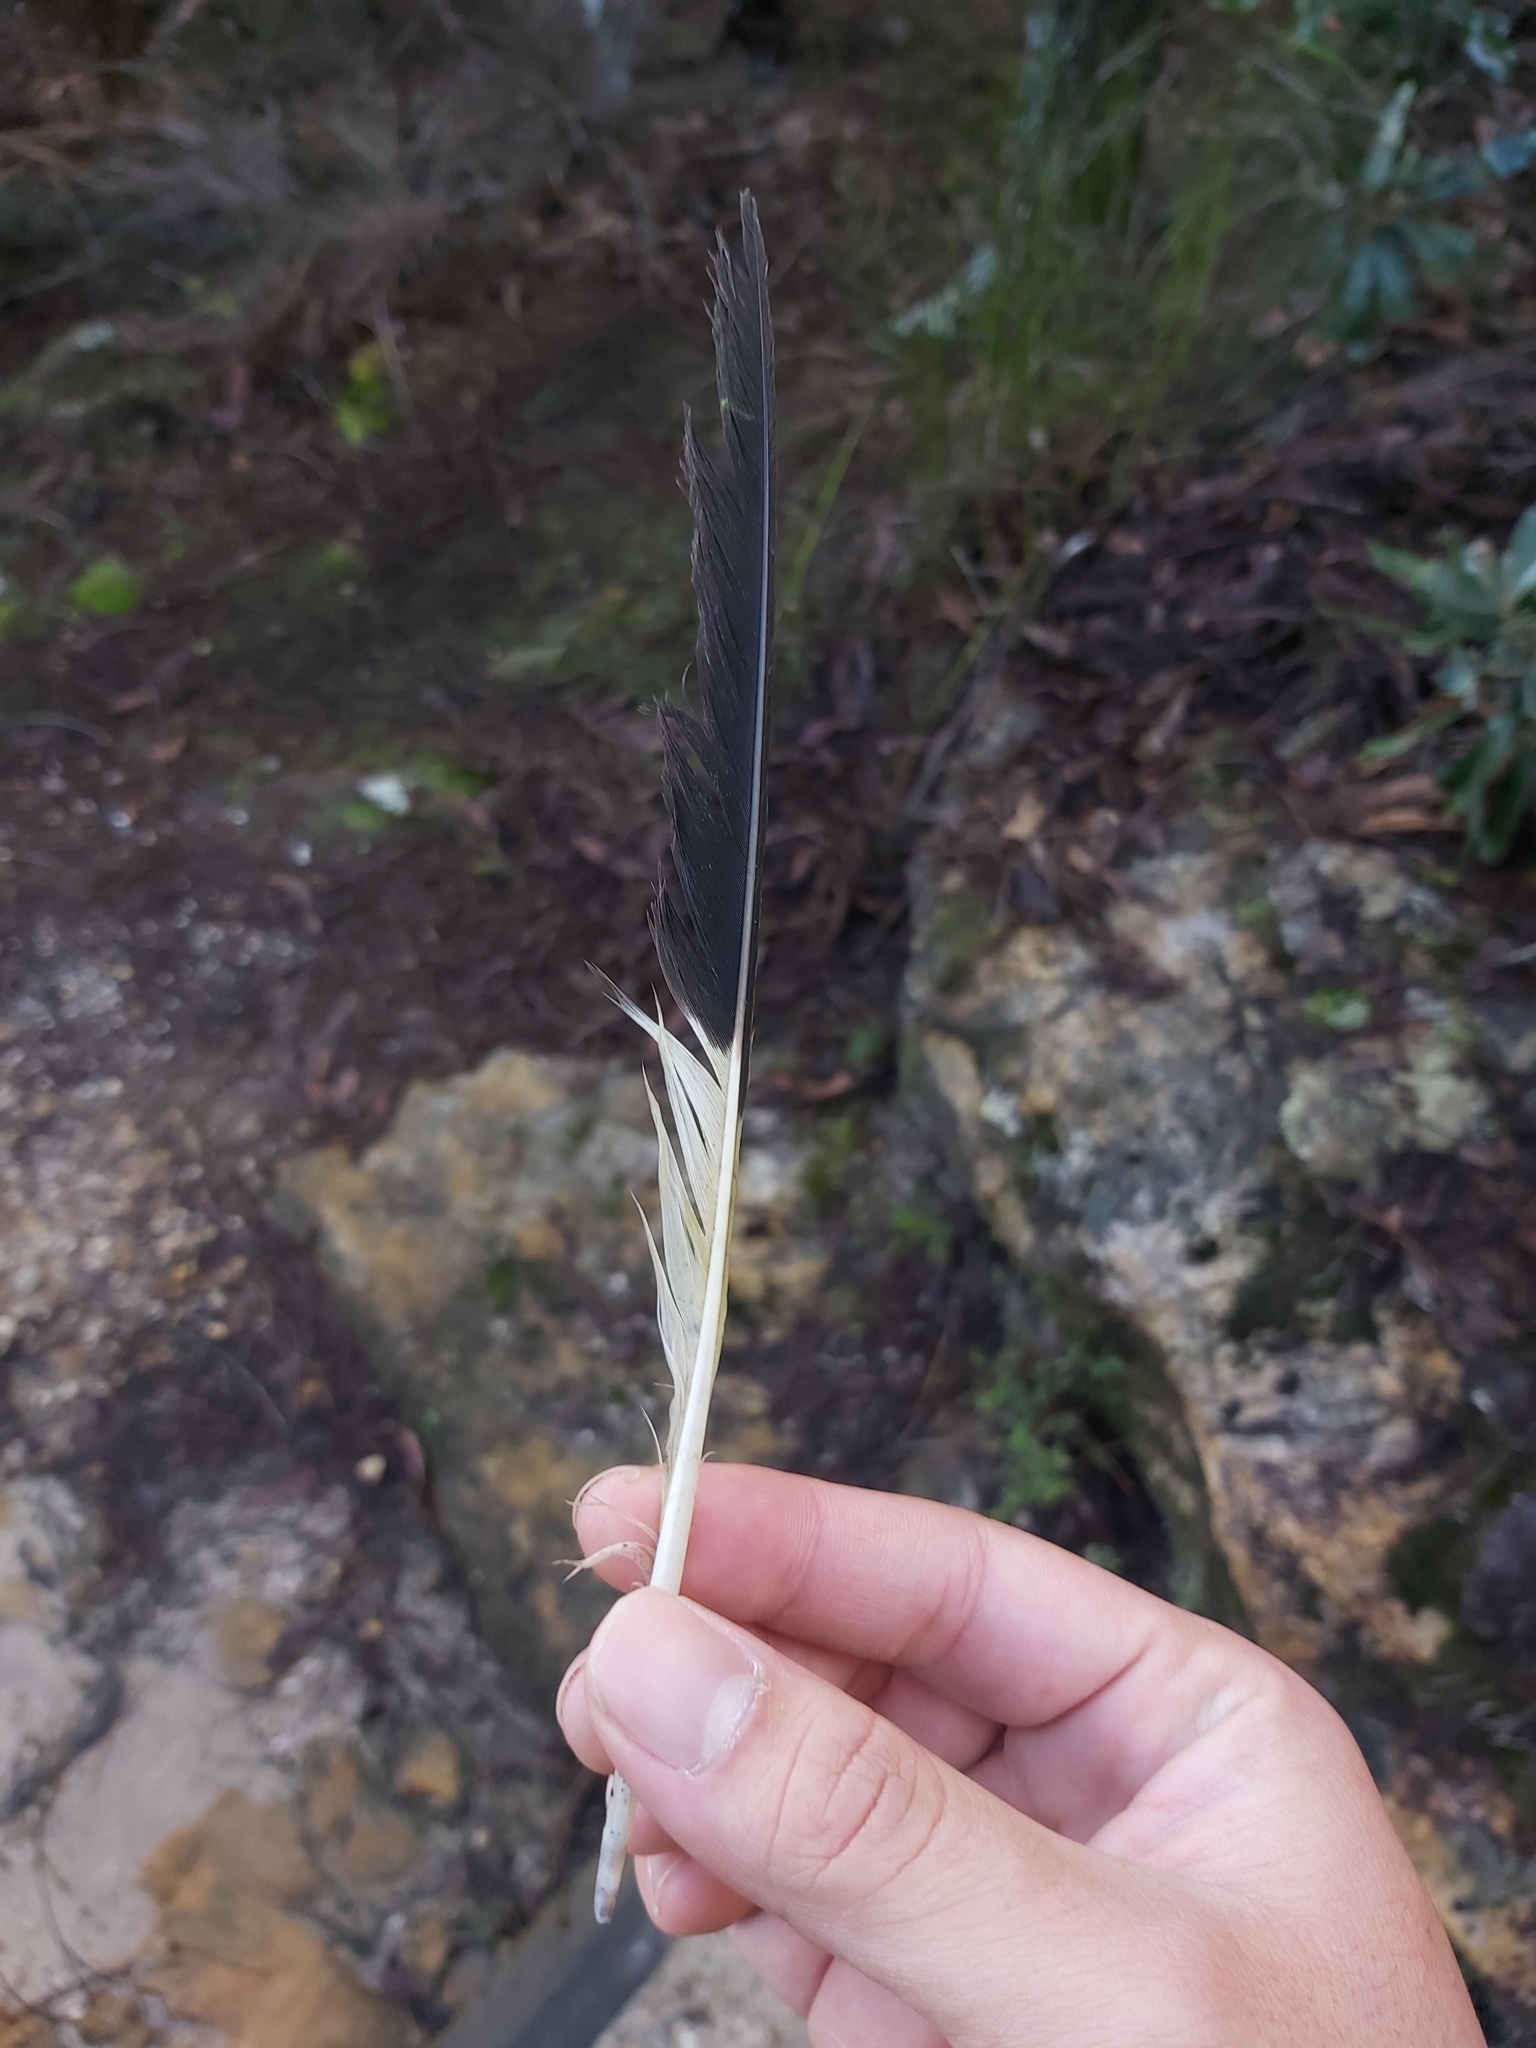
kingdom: Animalia
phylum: Chordata
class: Aves
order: Passeriformes
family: Cracticidae
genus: Strepera
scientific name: Strepera graculina
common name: Pied currawong
